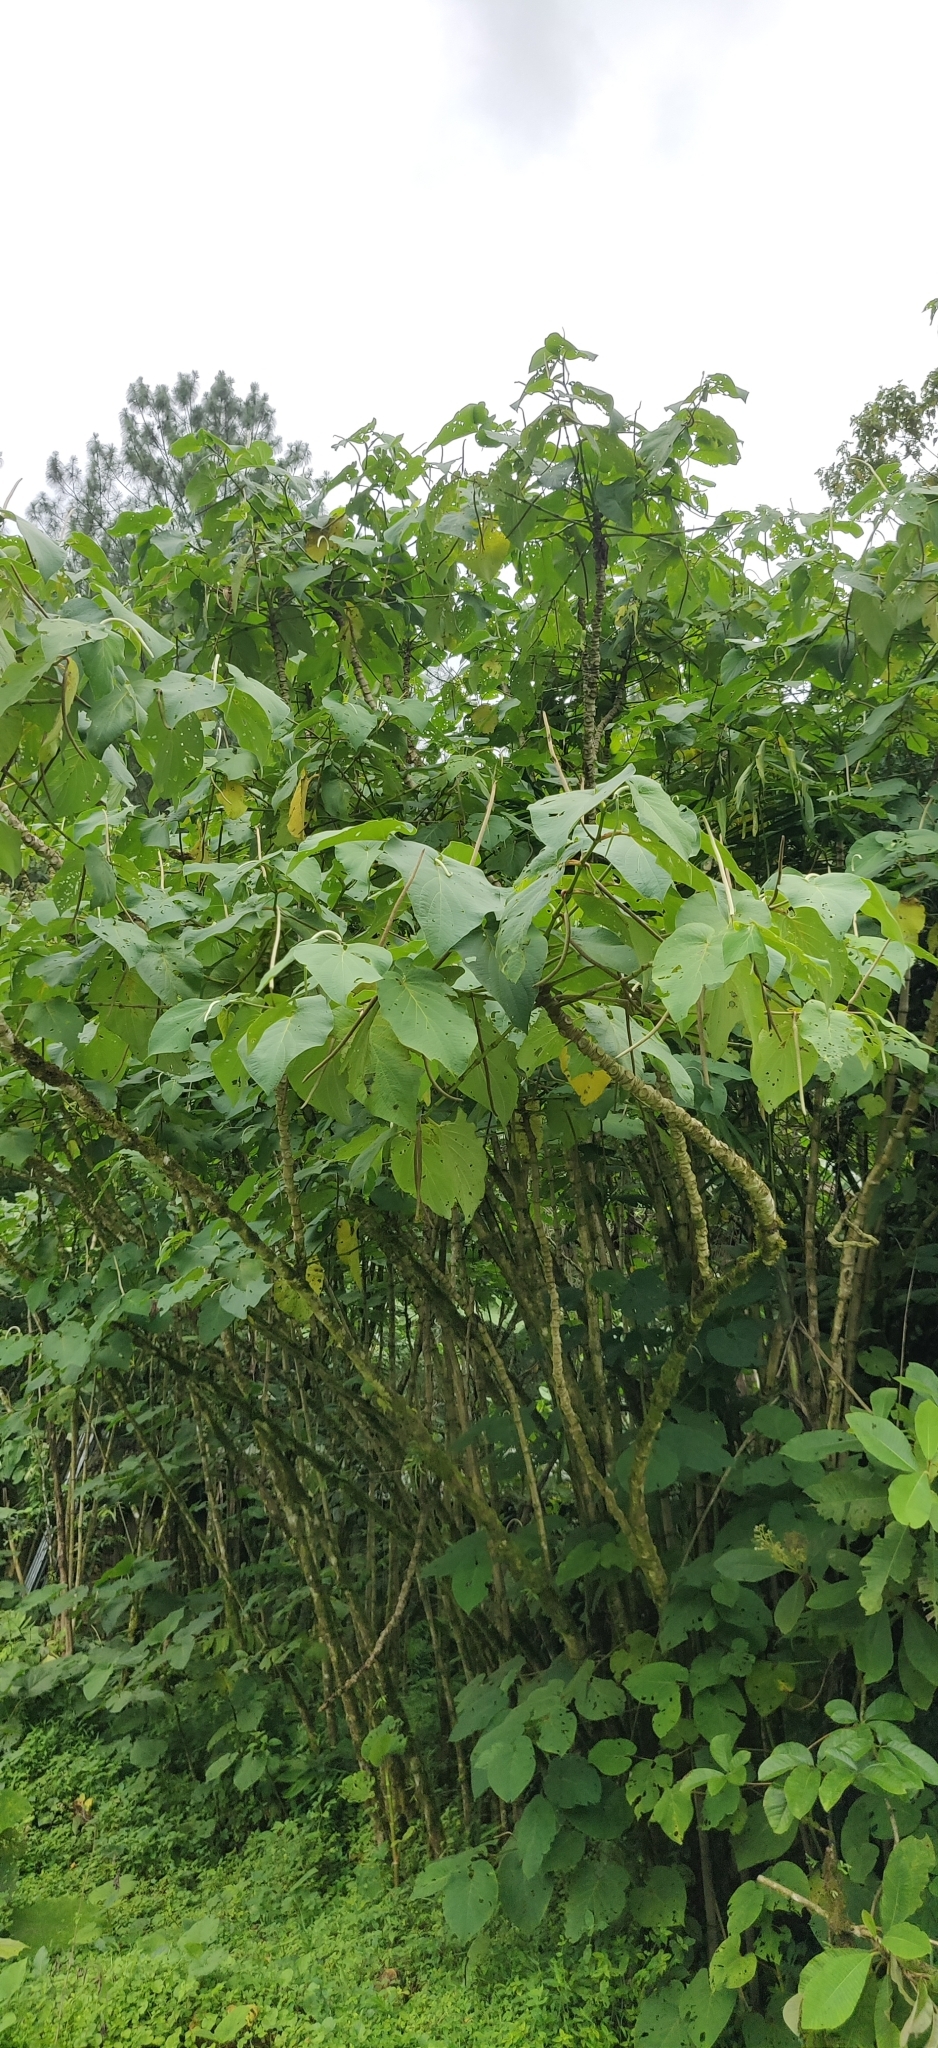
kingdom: Plantae
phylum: Tracheophyta
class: Magnoliopsida
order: Piperales
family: Piperaceae
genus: Piper
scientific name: Piper auritum
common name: Vera cruz pepper
